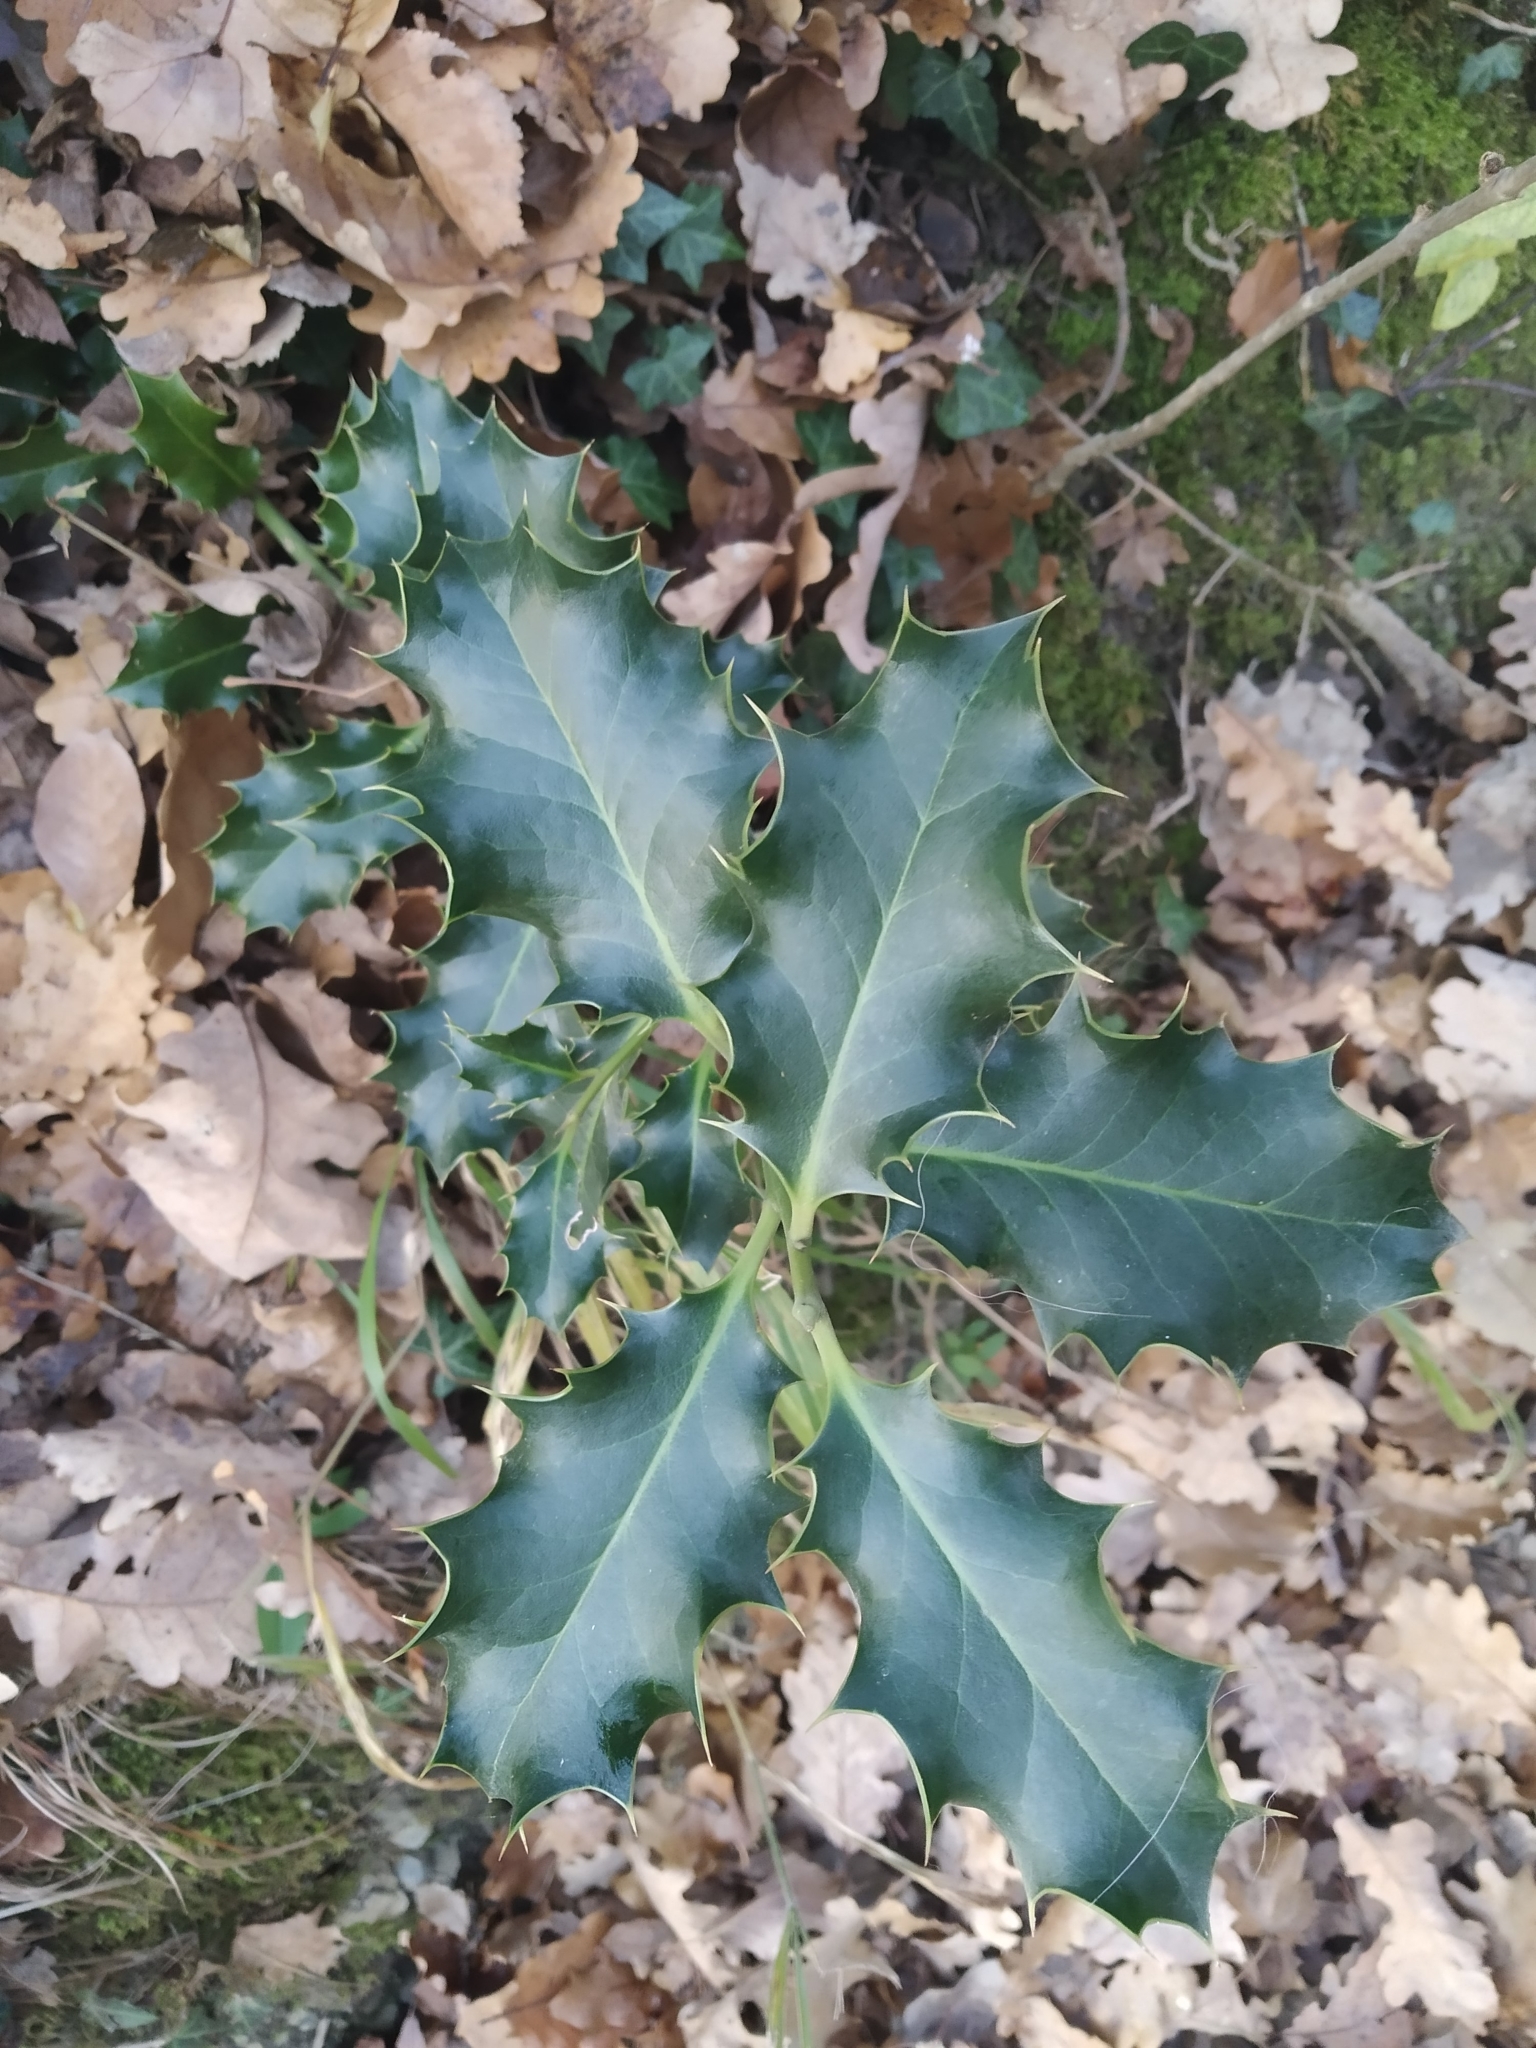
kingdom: Plantae
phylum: Tracheophyta
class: Magnoliopsida
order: Aquifoliales
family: Aquifoliaceae
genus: Ilex
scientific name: Ilex aquifolium
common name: English holly
